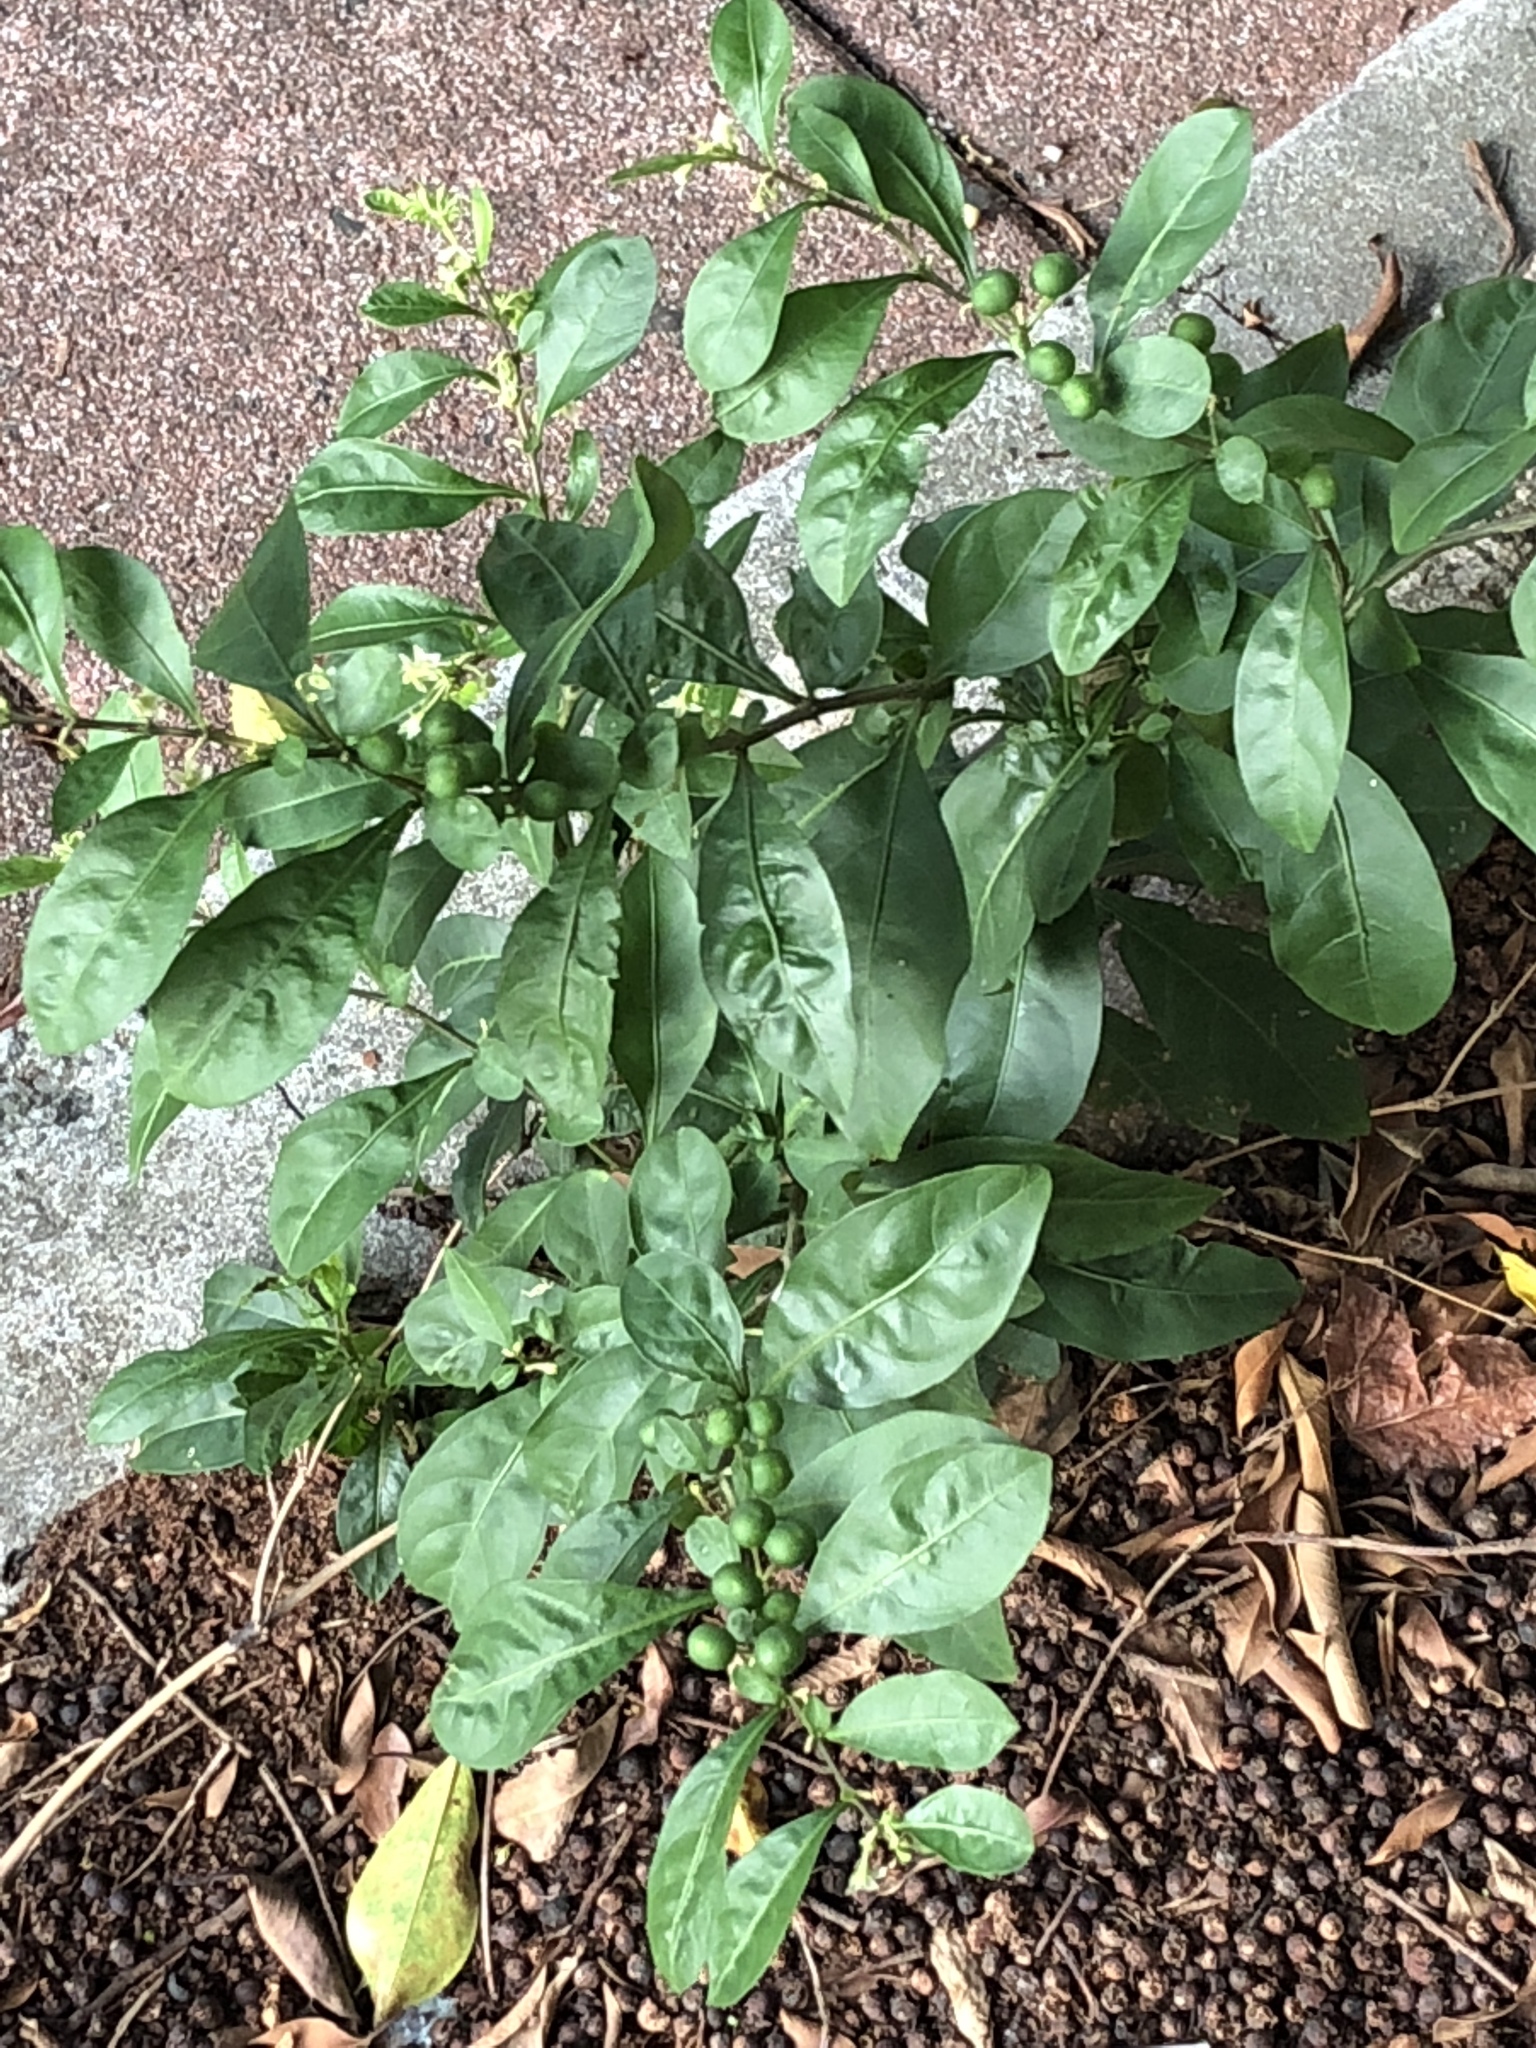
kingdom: Plantae
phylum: Tracheophyta
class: Magnoliopsida
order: Solanales
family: Solanaceae
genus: Solanum
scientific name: Solanum diphyllum
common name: Twoleaf nightshade
